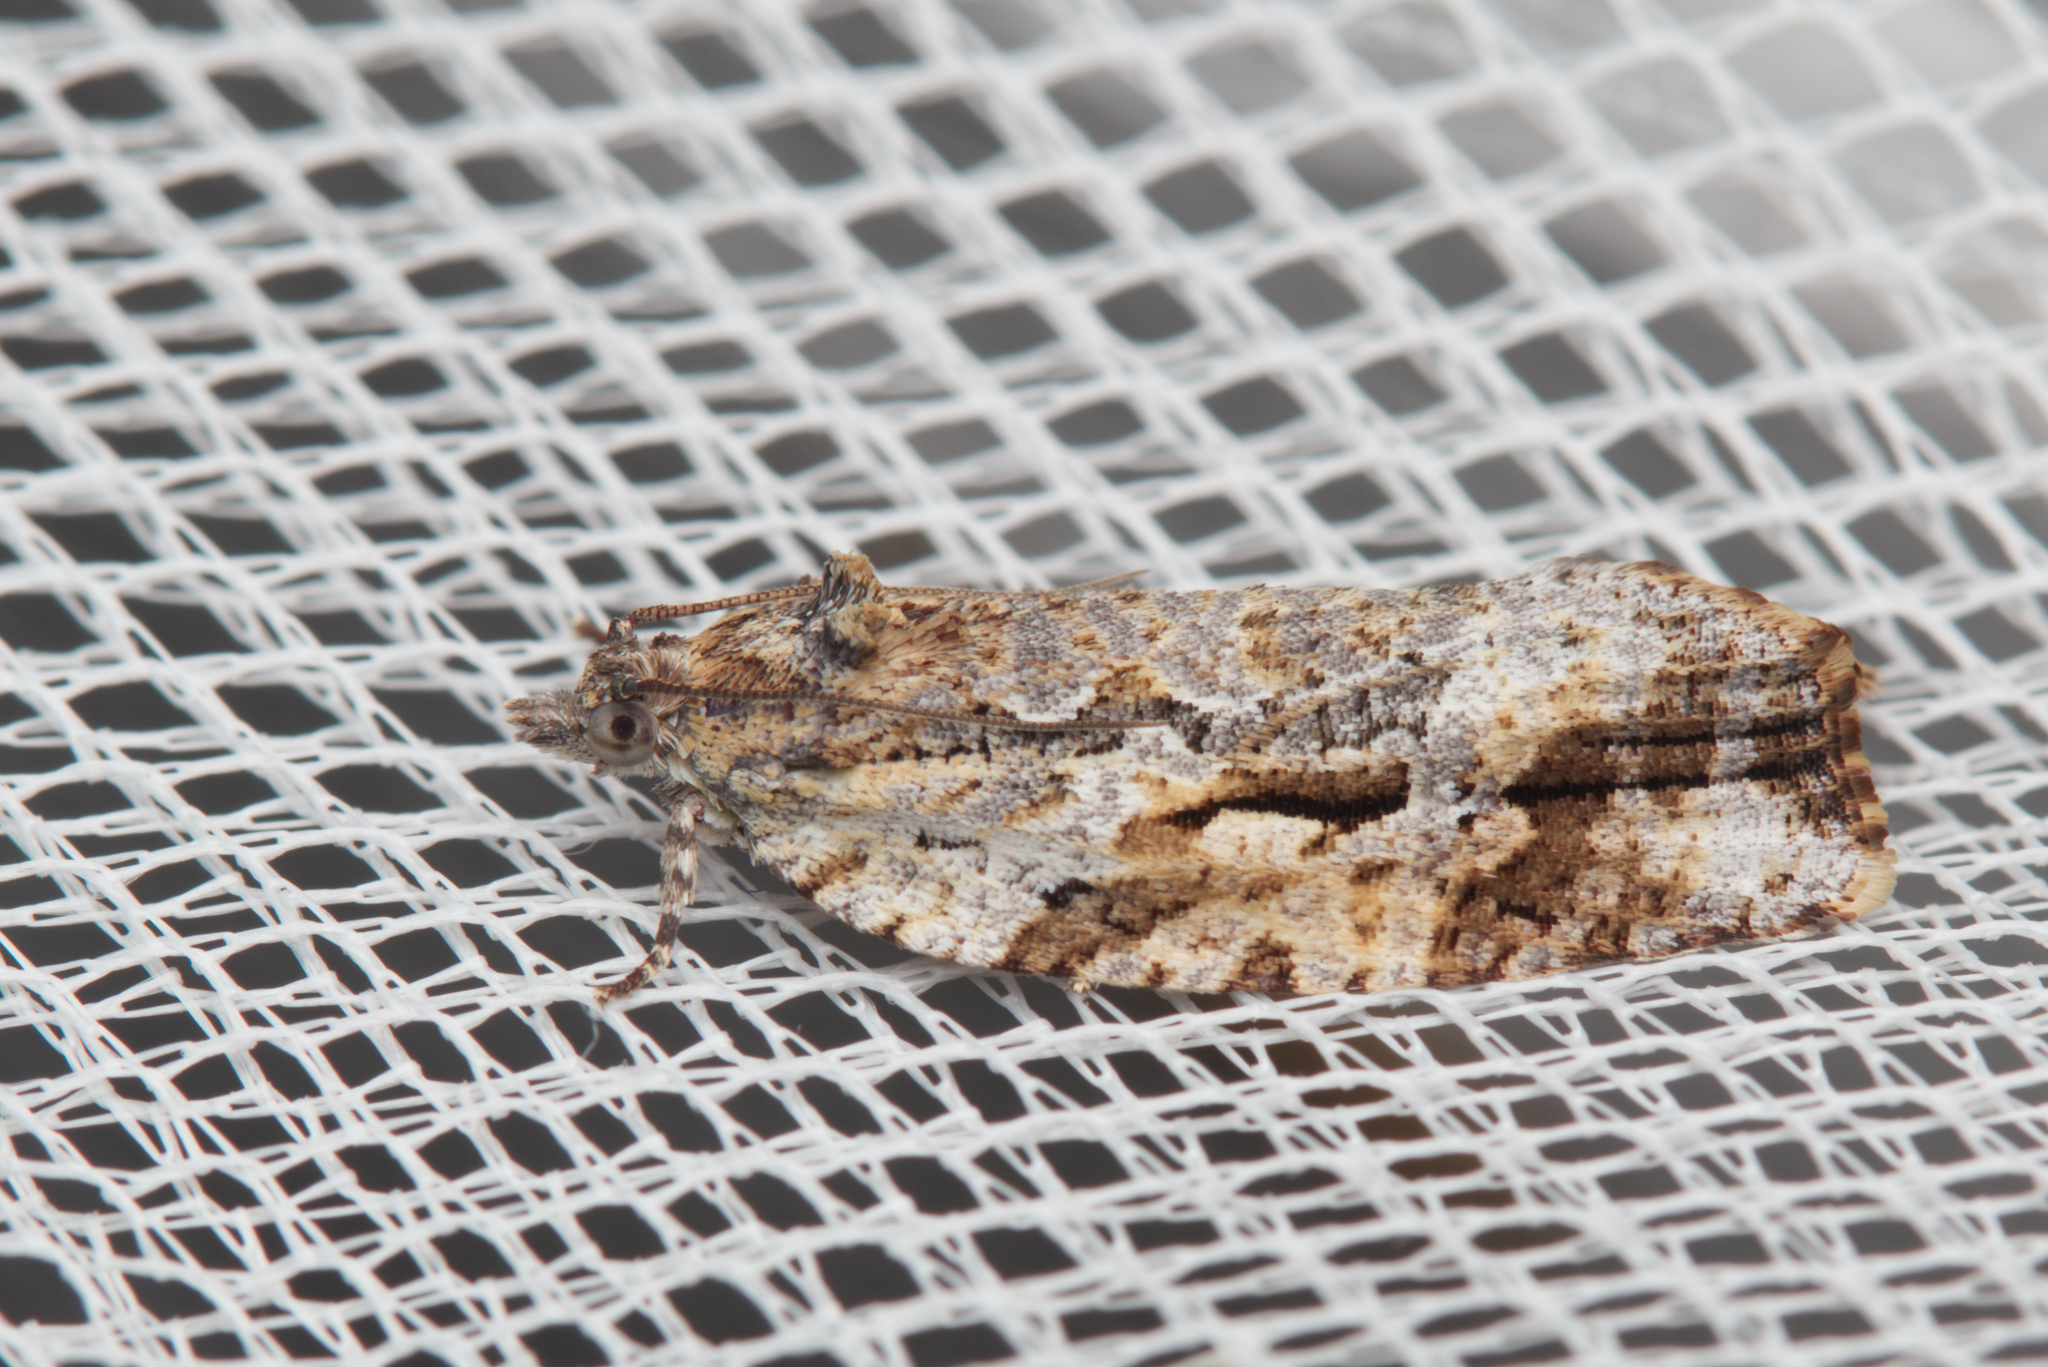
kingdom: Animalia
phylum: Arthropoda
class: Insecta
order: Lepidoptera
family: Tortricidae
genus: Thrincophora
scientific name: Thrincophora lignigerana
